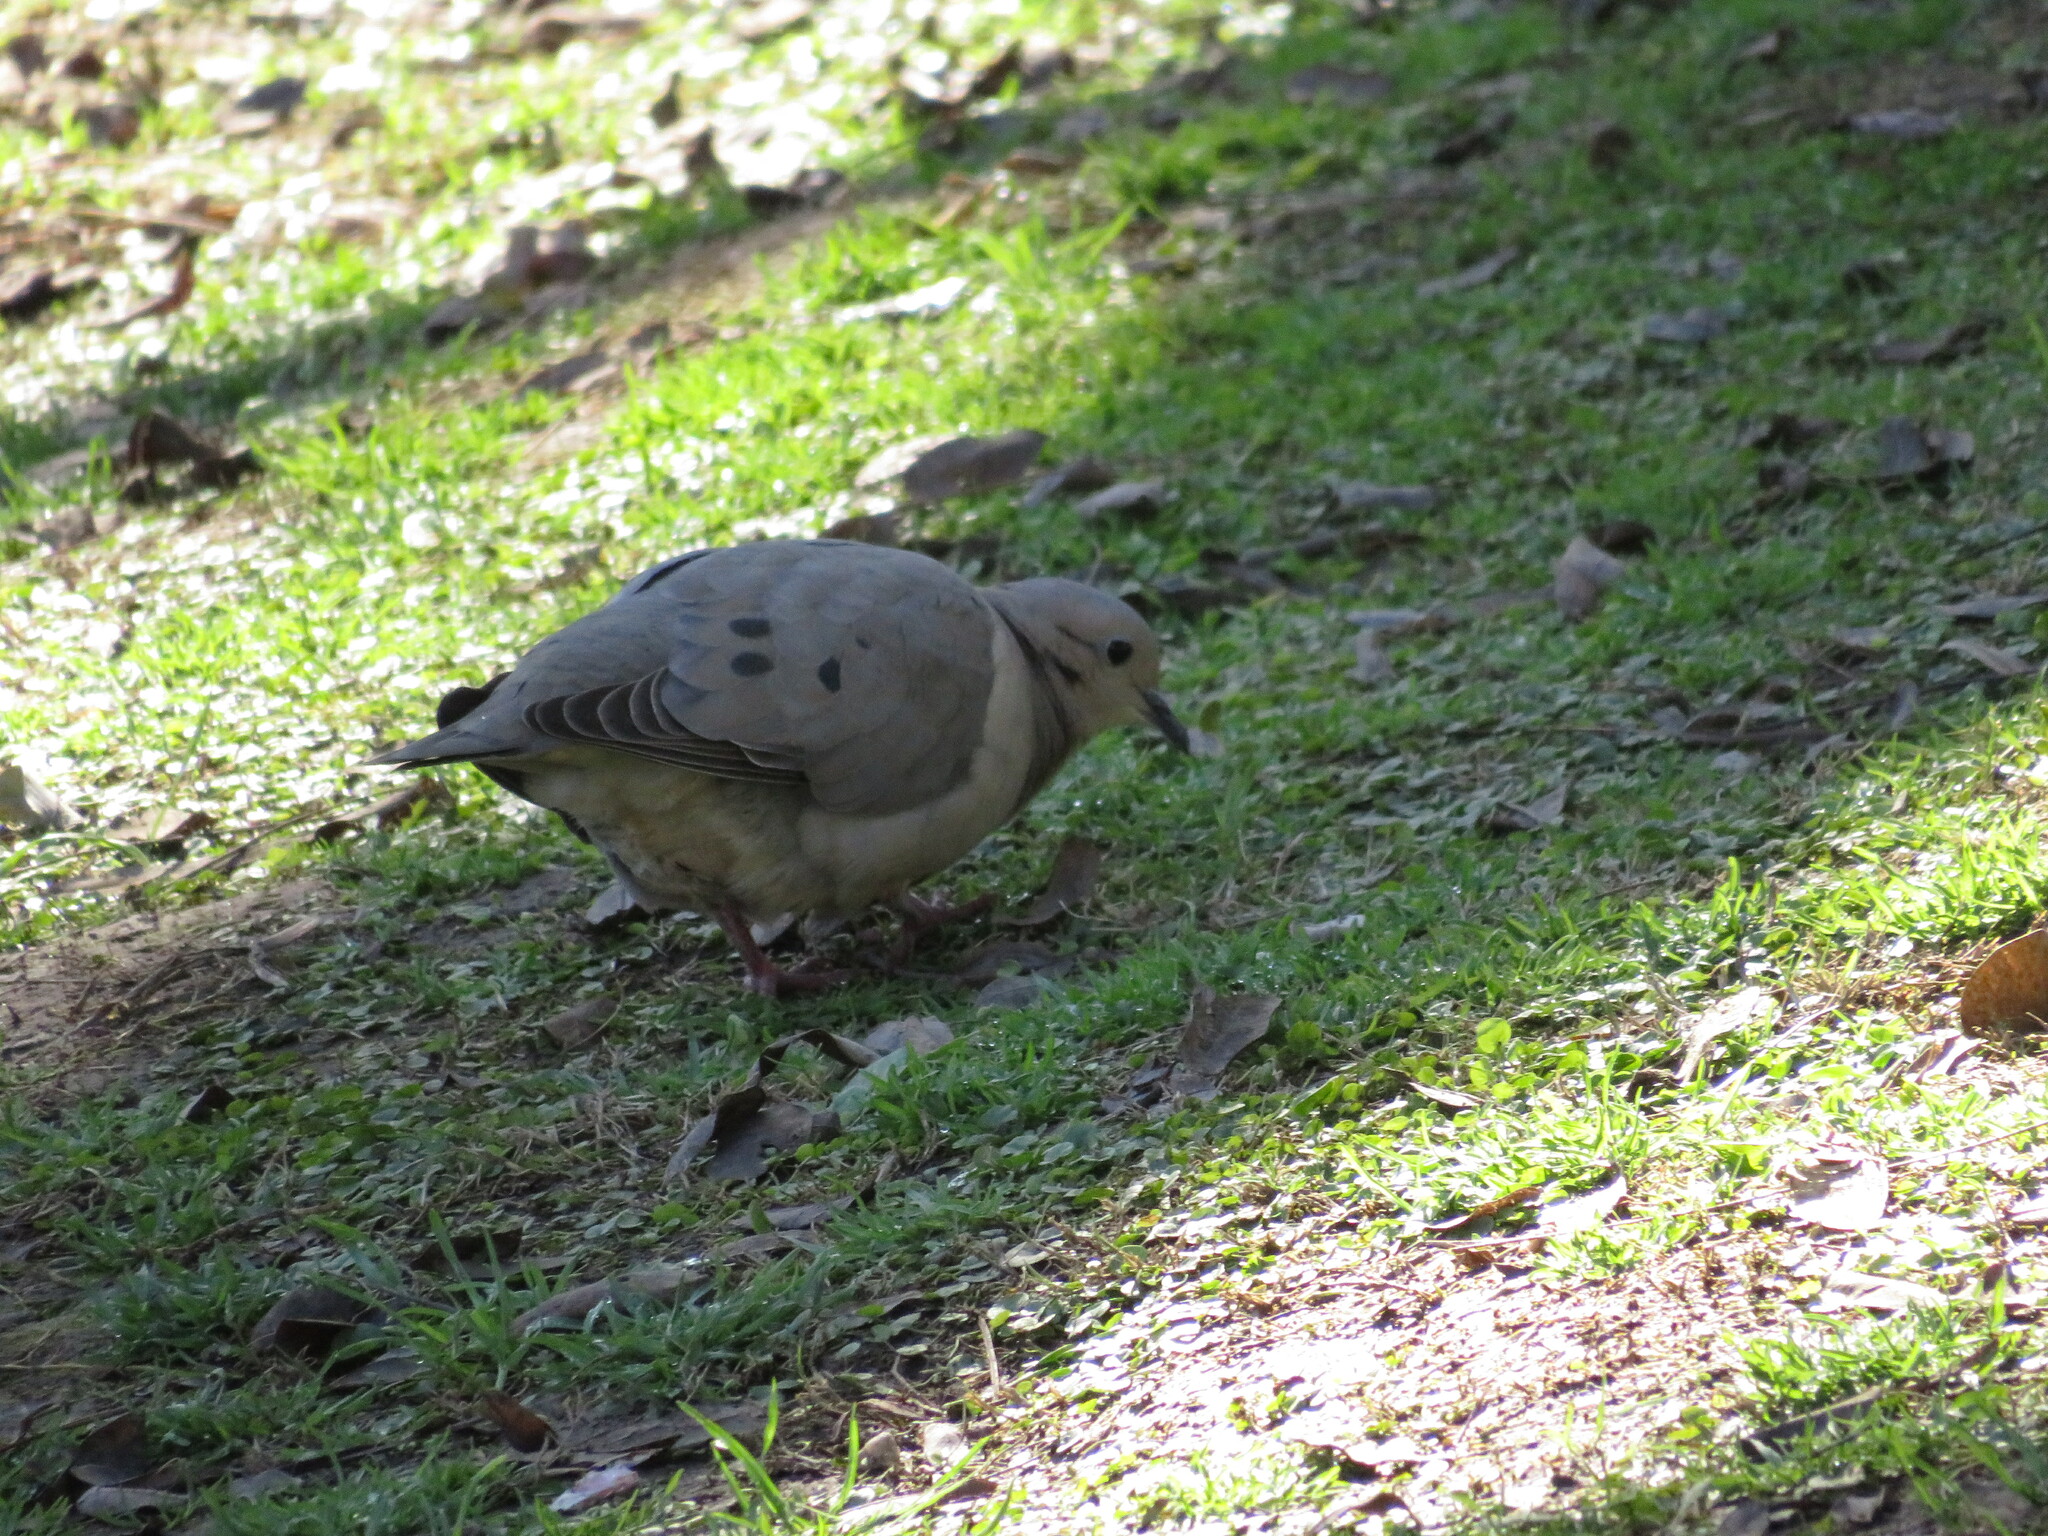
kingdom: Animalia
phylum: Chordata
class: Aves
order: Columbiformes
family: Columbidae
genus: Zenaida
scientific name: Zenaida auriculata
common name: Eared dove
